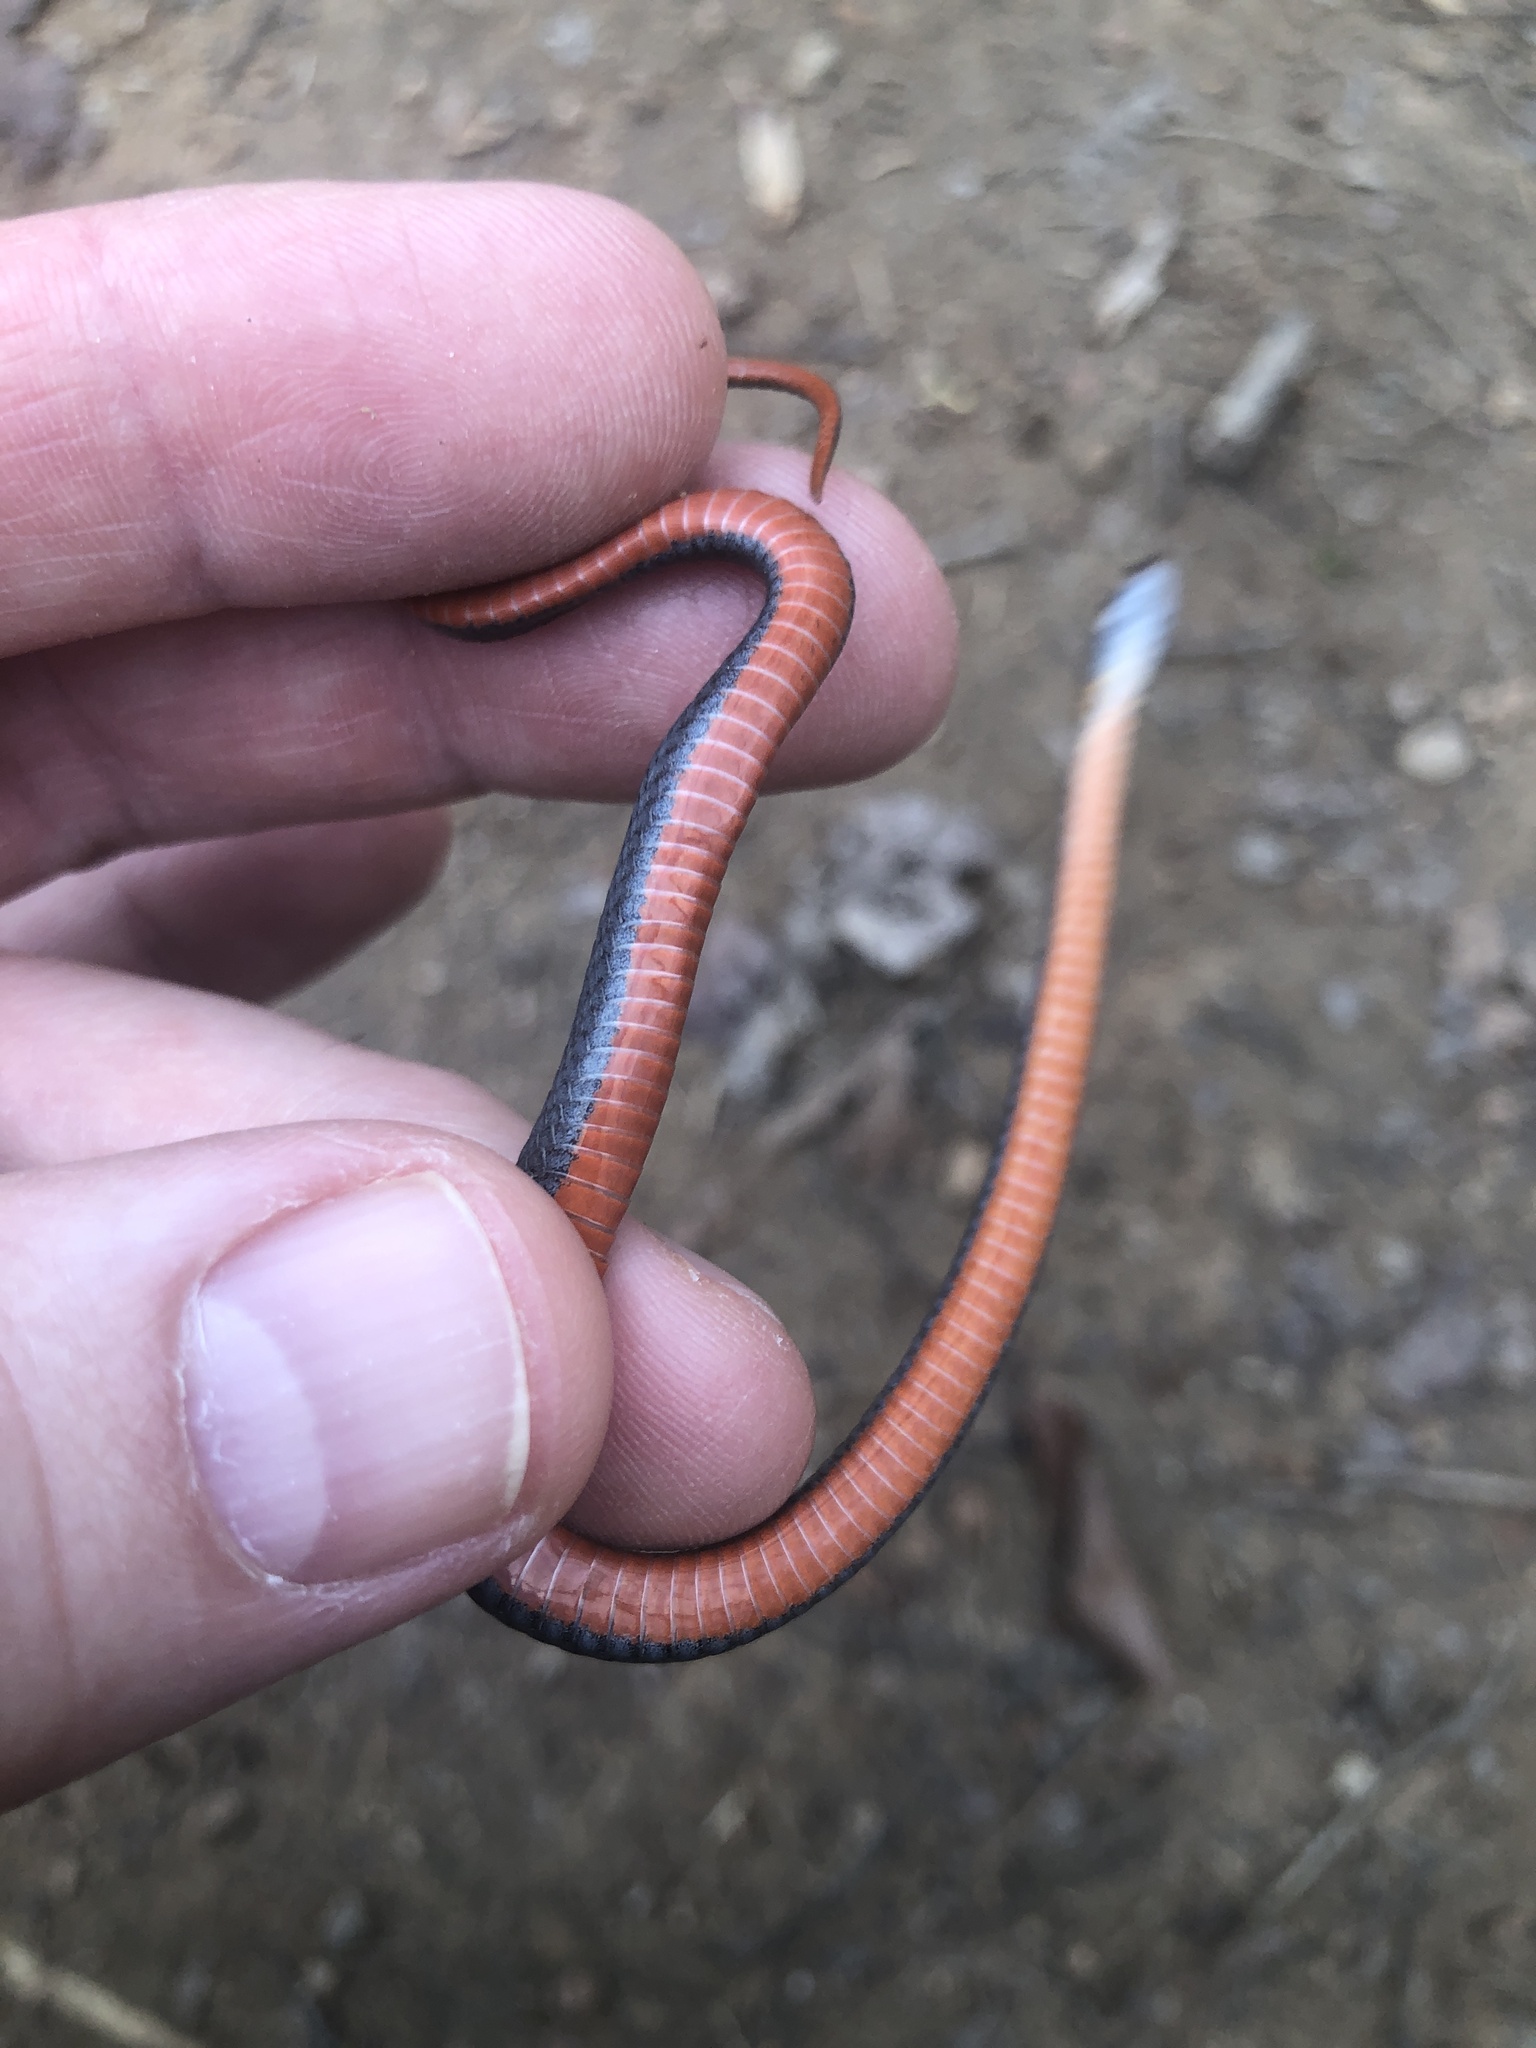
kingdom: Animalia
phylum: Chordata
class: Squamata
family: Colubridae
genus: Storeria
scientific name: Storeria occipitomaculata
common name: Redbelly snake
